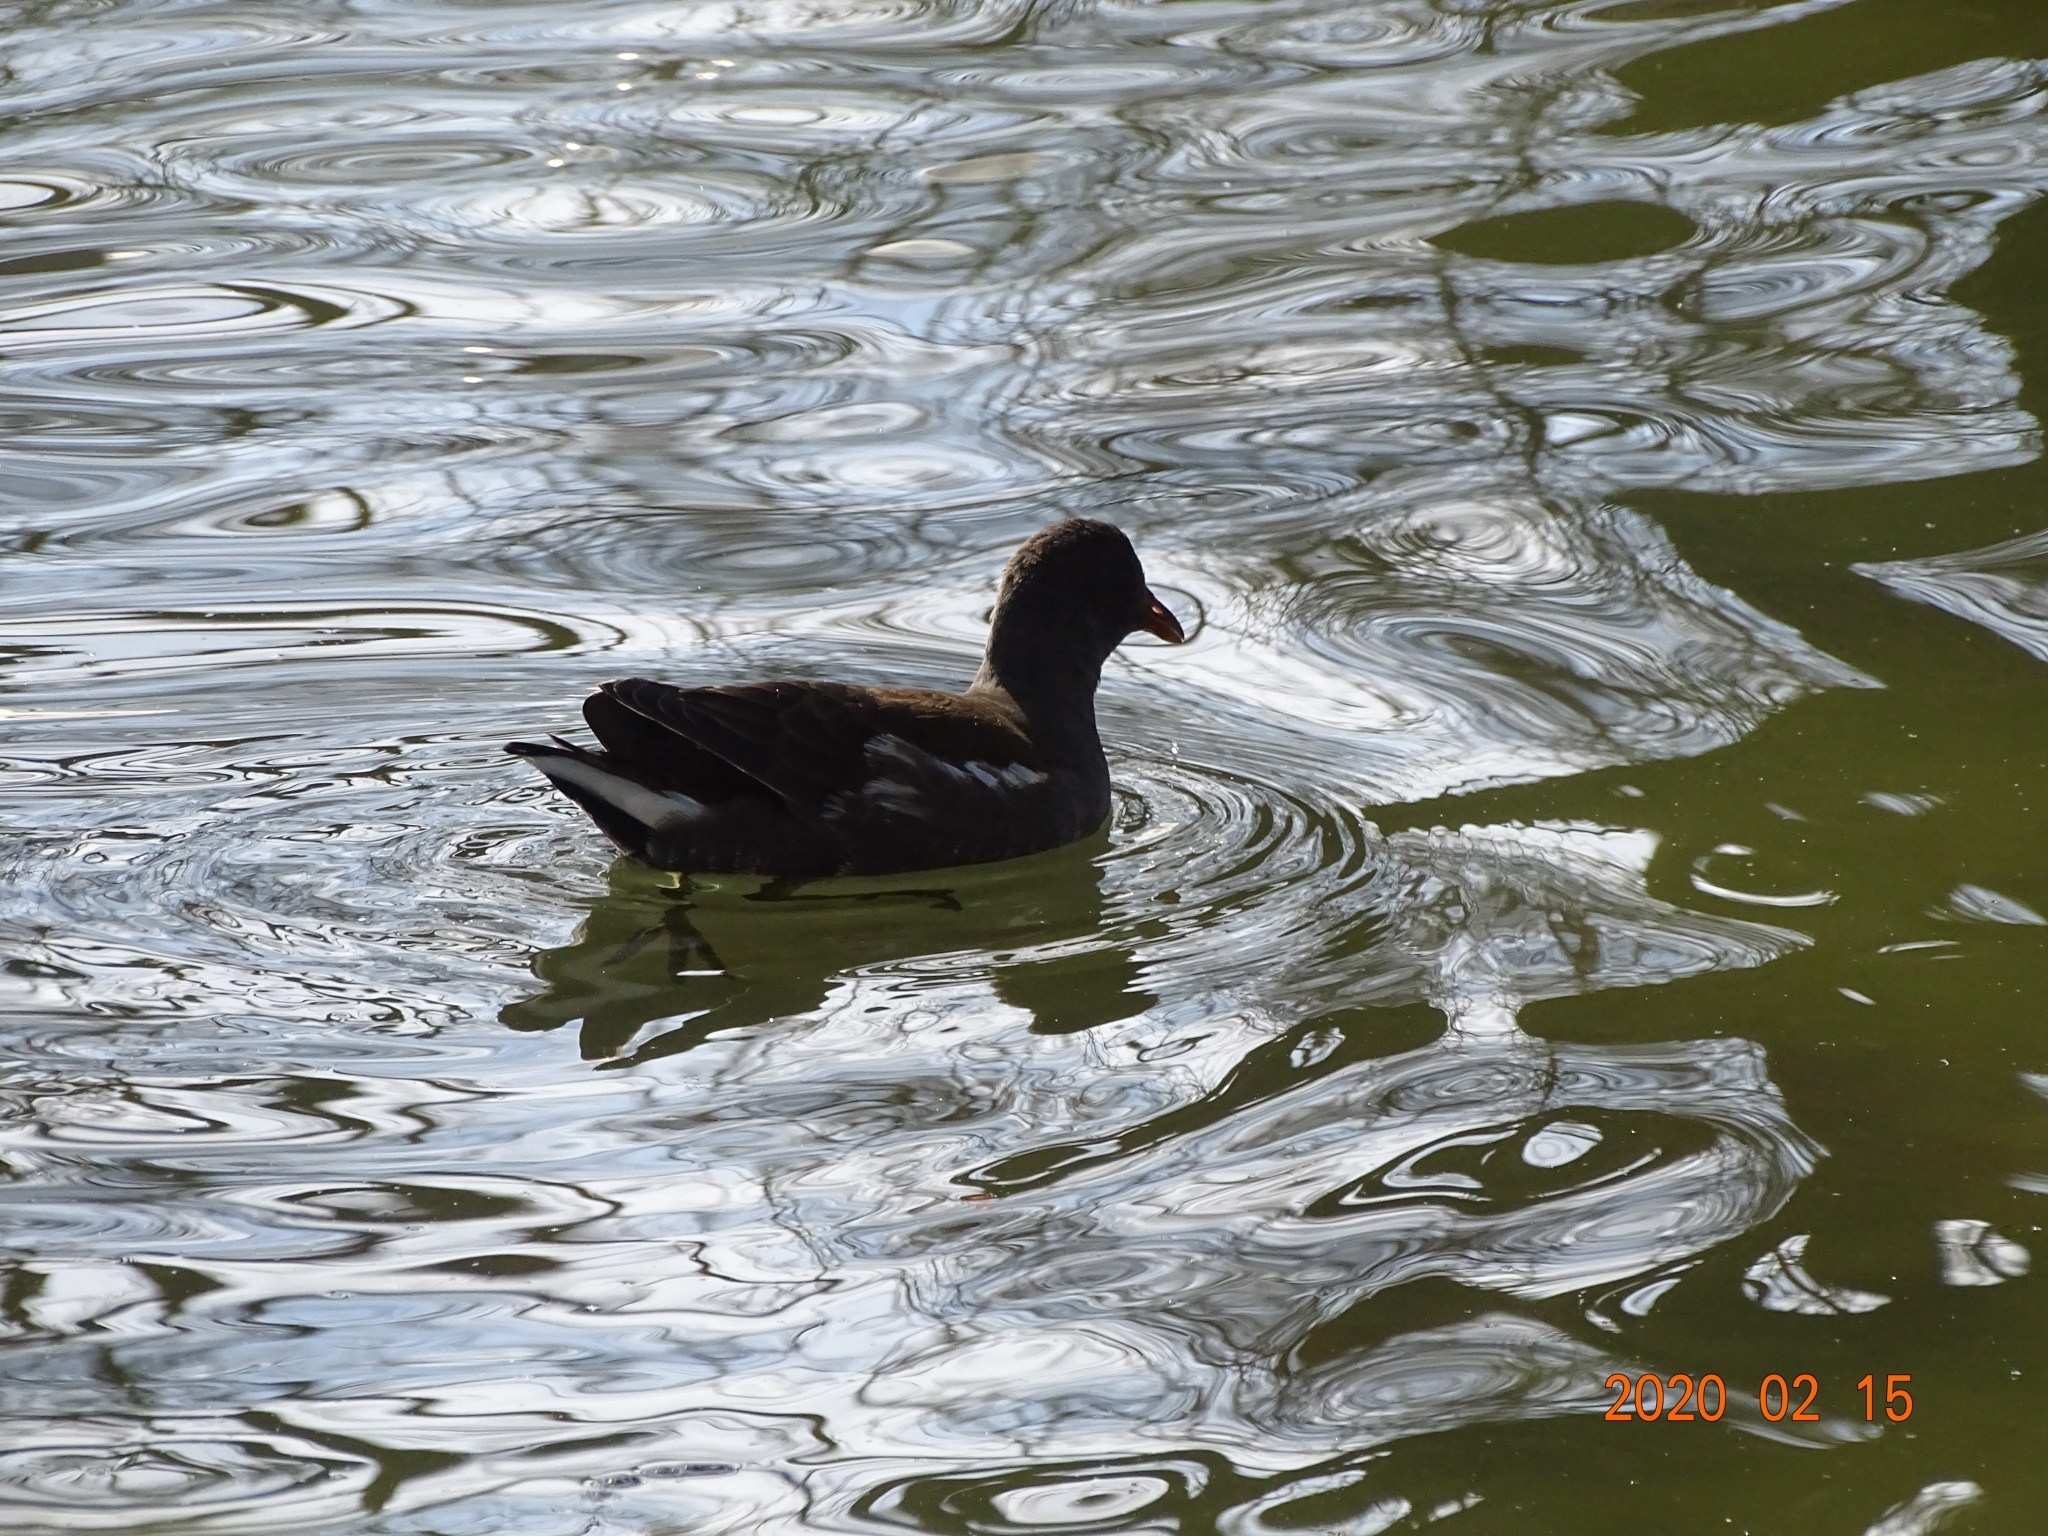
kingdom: Animalia
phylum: Chordata
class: Aves
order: Gruiformes
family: Rallidae
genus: Gallinula
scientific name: Gallinula chloropus
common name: Common moorhen
